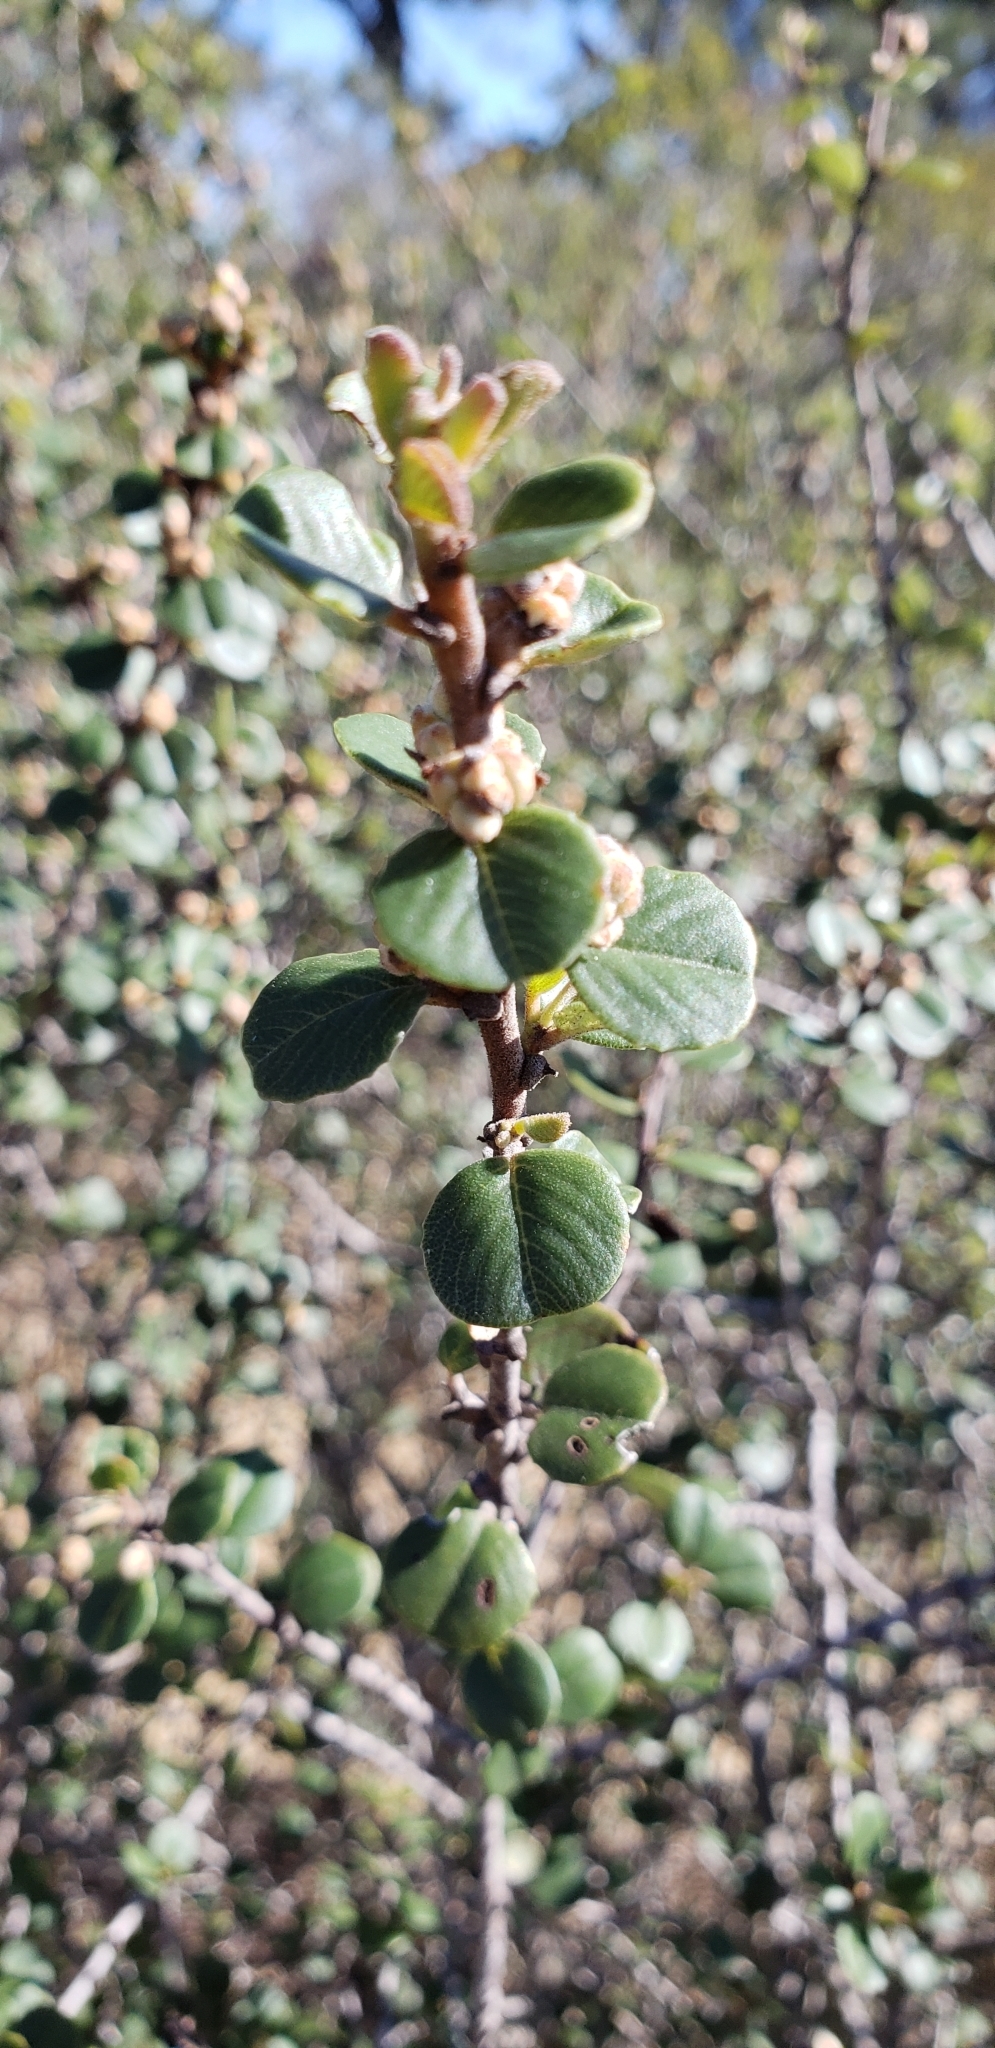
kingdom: Plantae
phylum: Tracheophyta
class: Magnoliopsida
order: Rosales
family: Rhamnaceae
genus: Ceanothus
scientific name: Ceanothus verrucosus
